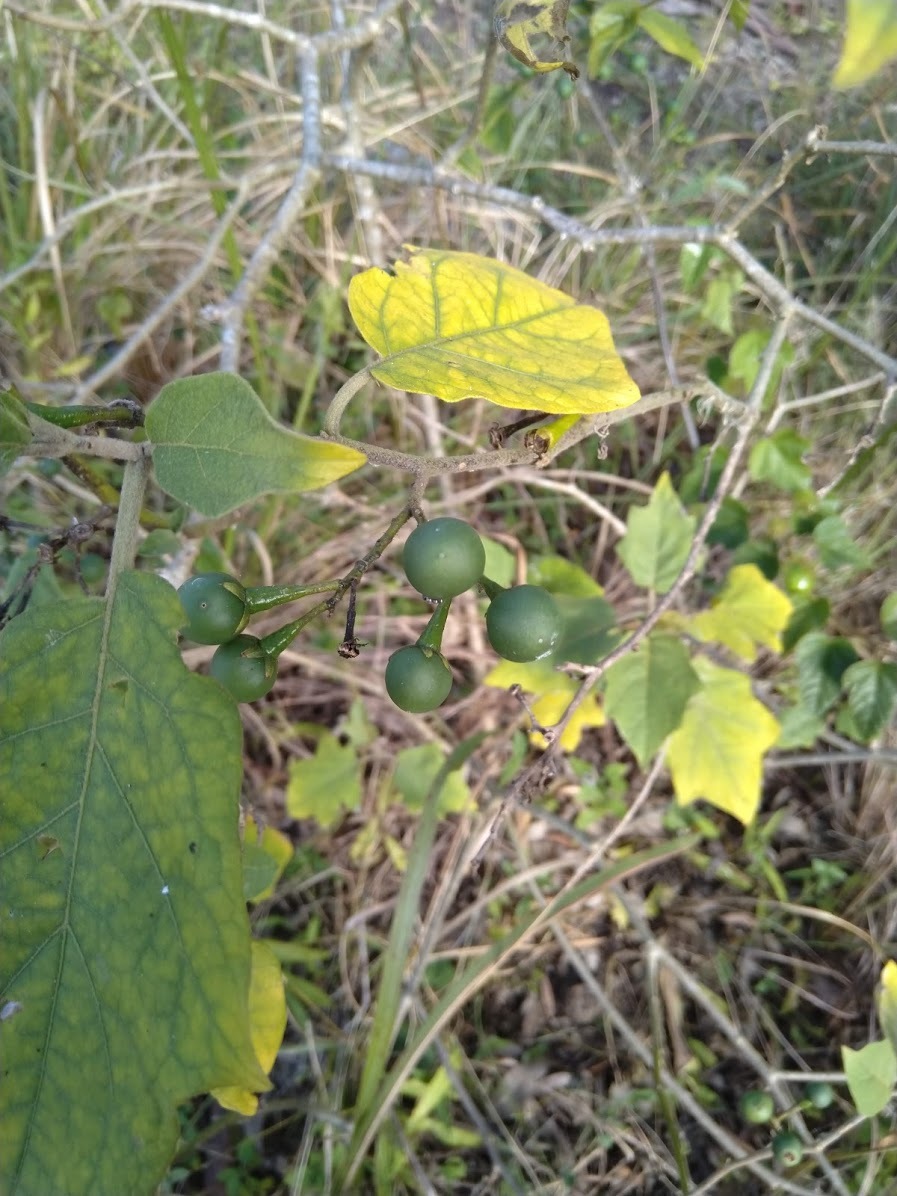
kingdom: Plantae
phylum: Tracheophyta
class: Magnoliopsida
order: Solanales
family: Solanaceae
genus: Solanum
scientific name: Solanum torvum
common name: Turkey berry
